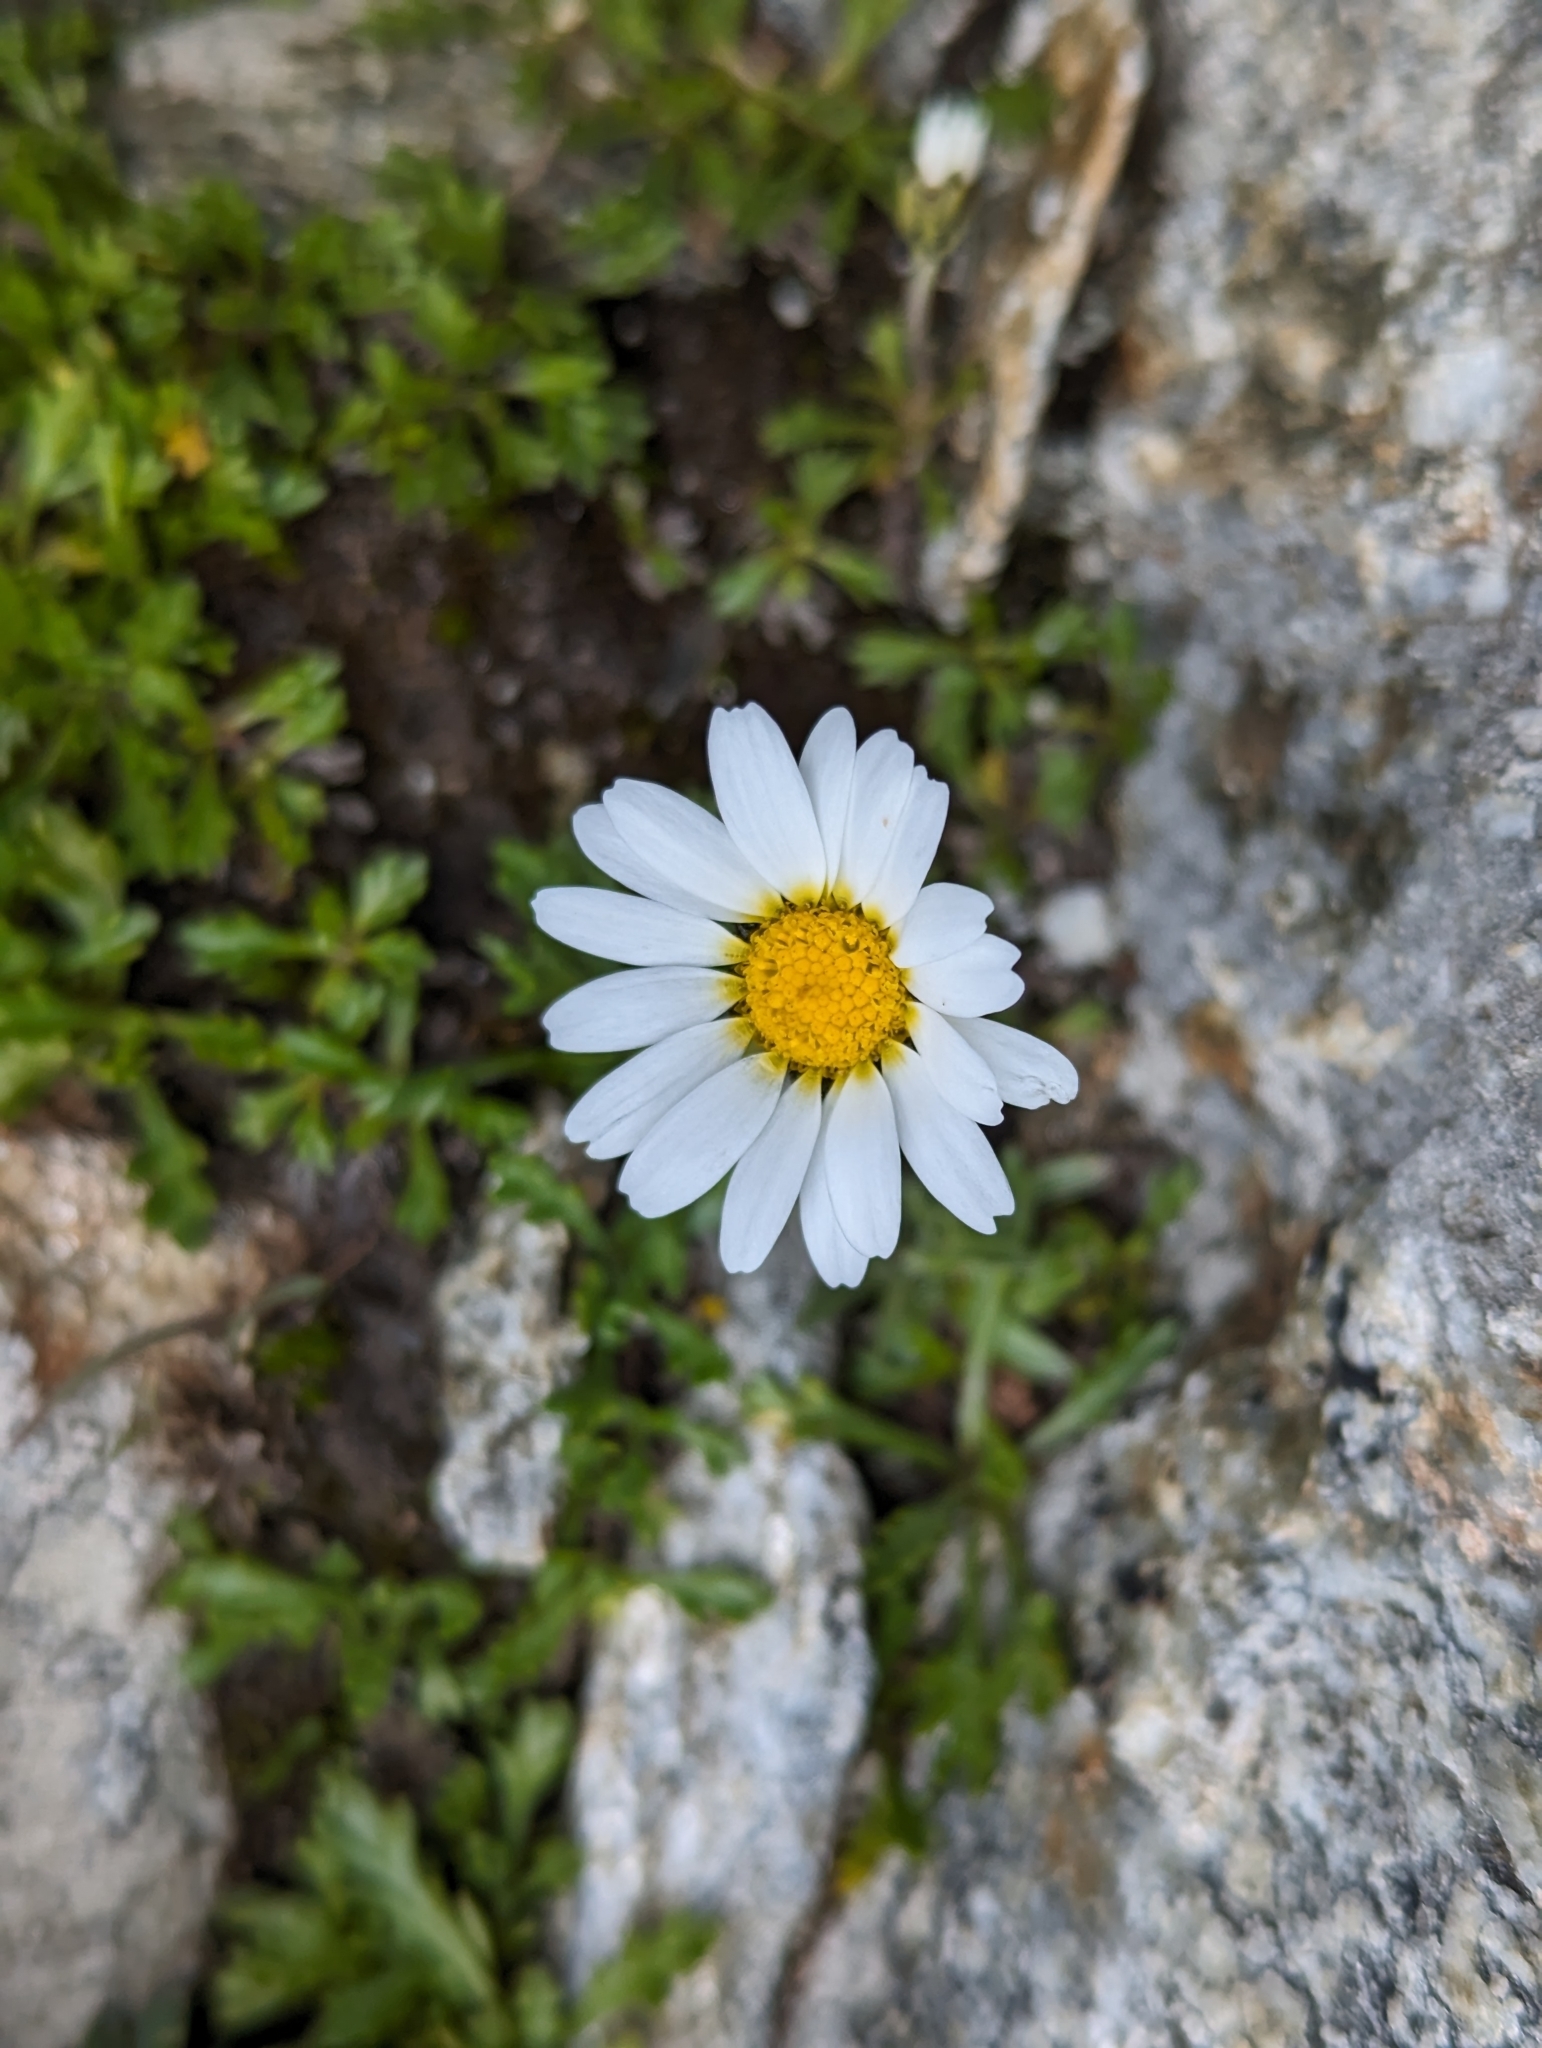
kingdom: Plantae
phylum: Tracheophyta
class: Magnoliopsida
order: Asterales
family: Asteraceae
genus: Leucanthemopsis
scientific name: Leucanthemopsis alpina
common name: Alpine moon daisy
